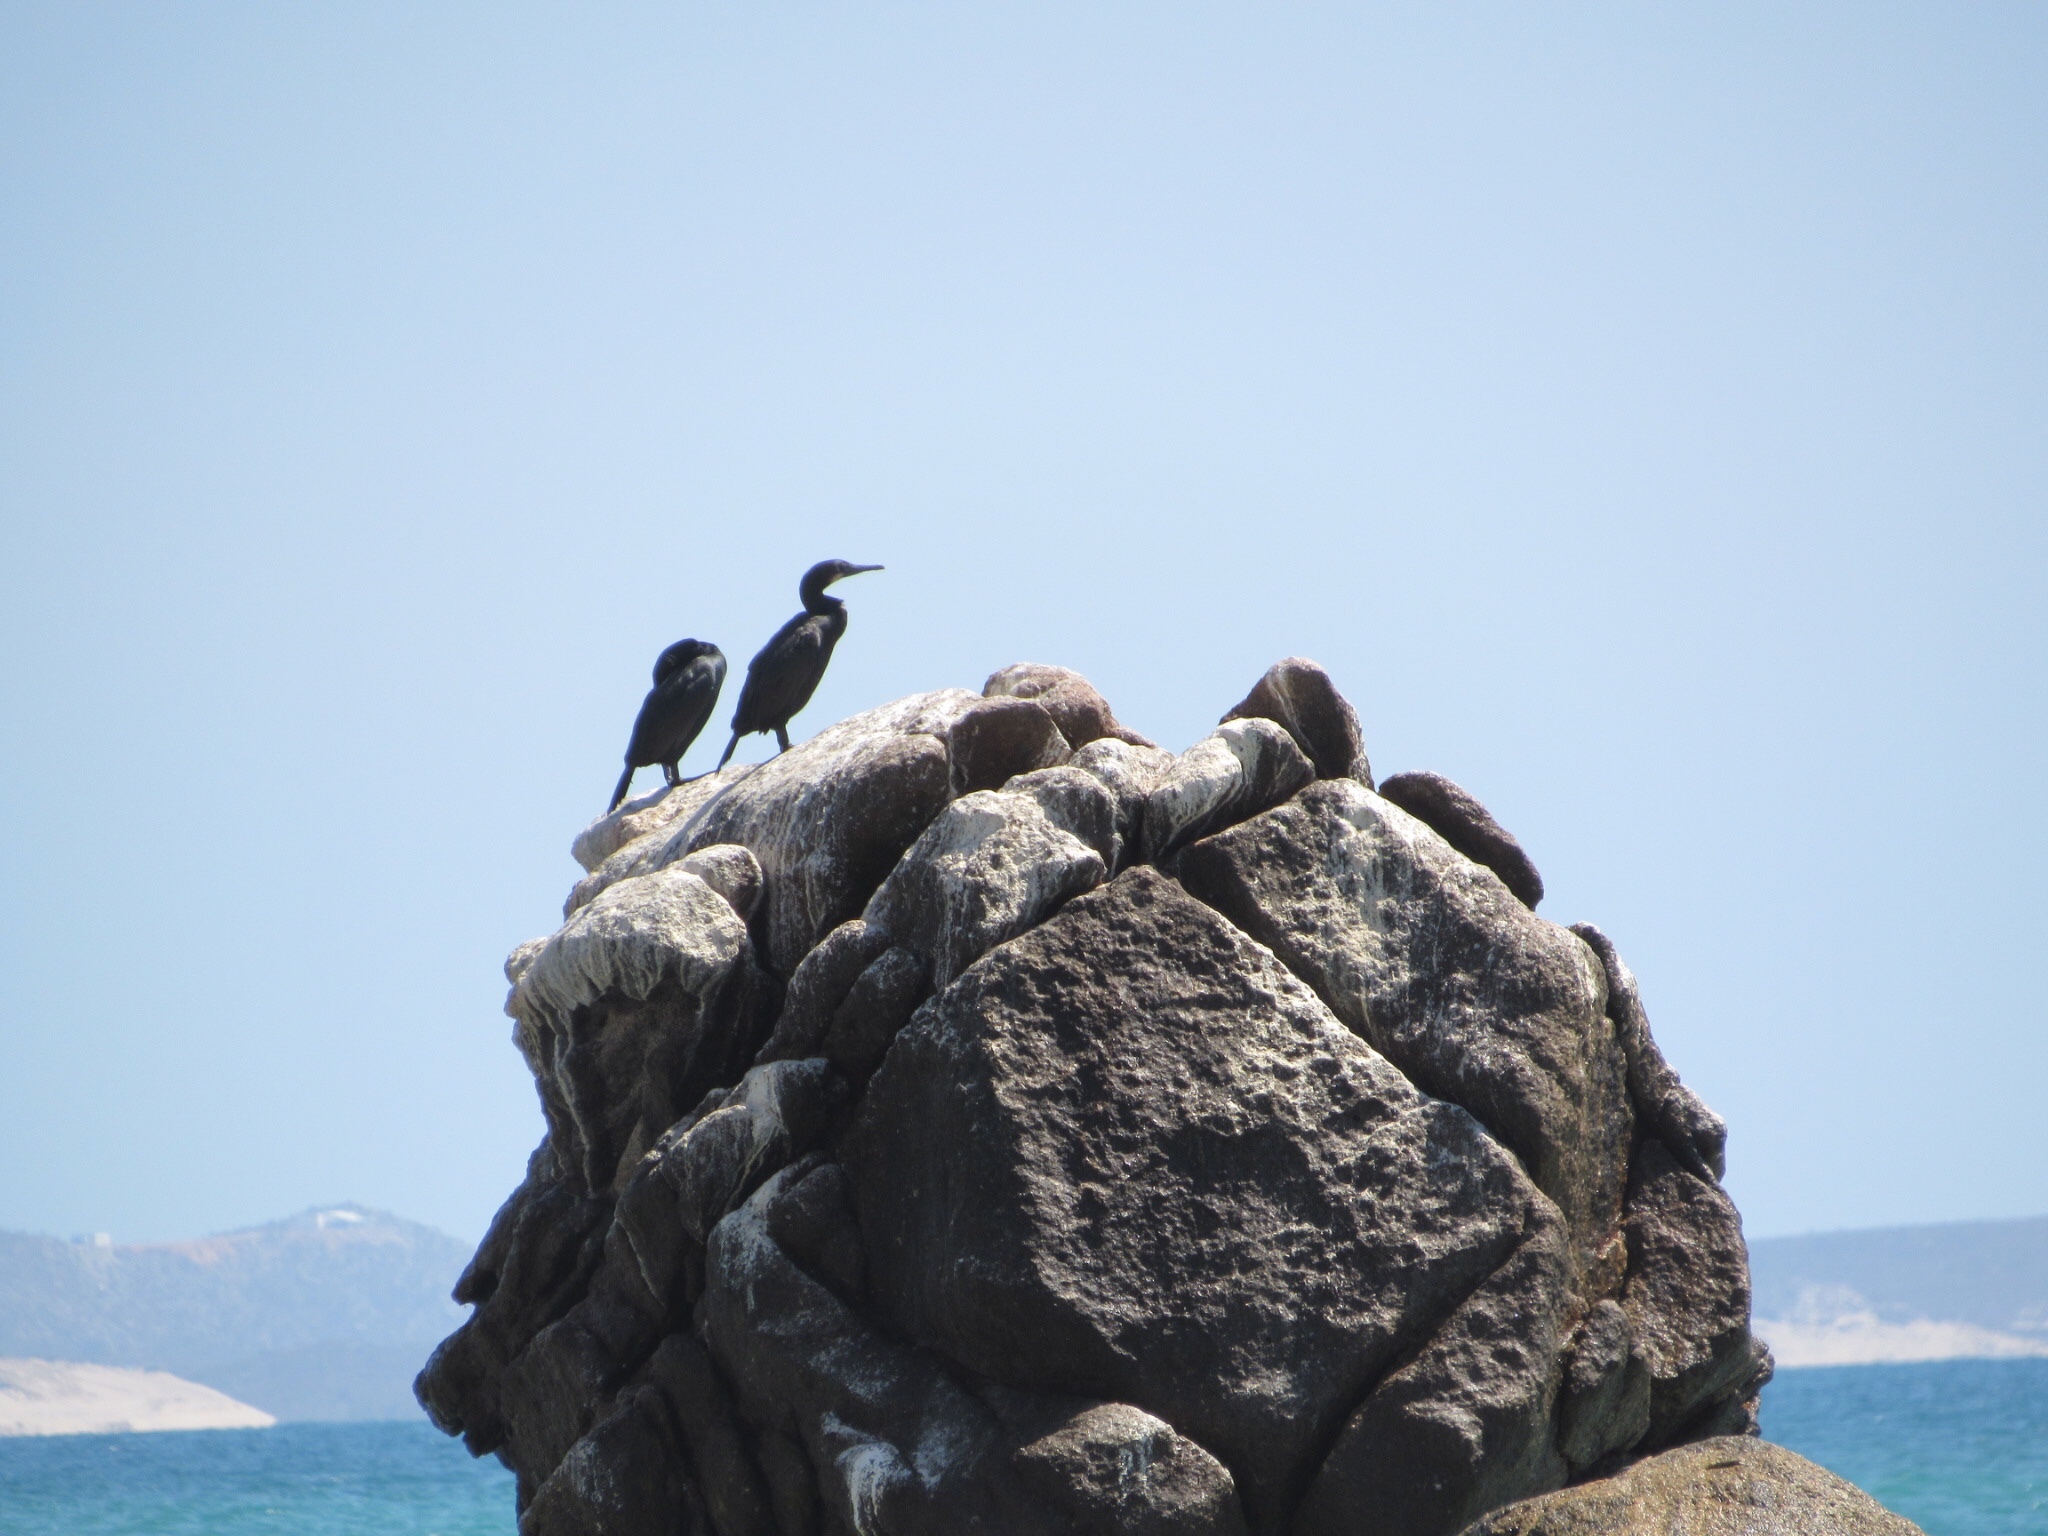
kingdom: Animalia
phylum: Chordata
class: Aves
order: Suliformes
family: Phalacrocoracidae
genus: Urile
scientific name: Urile penicillatus
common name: Brandt's cormorant
